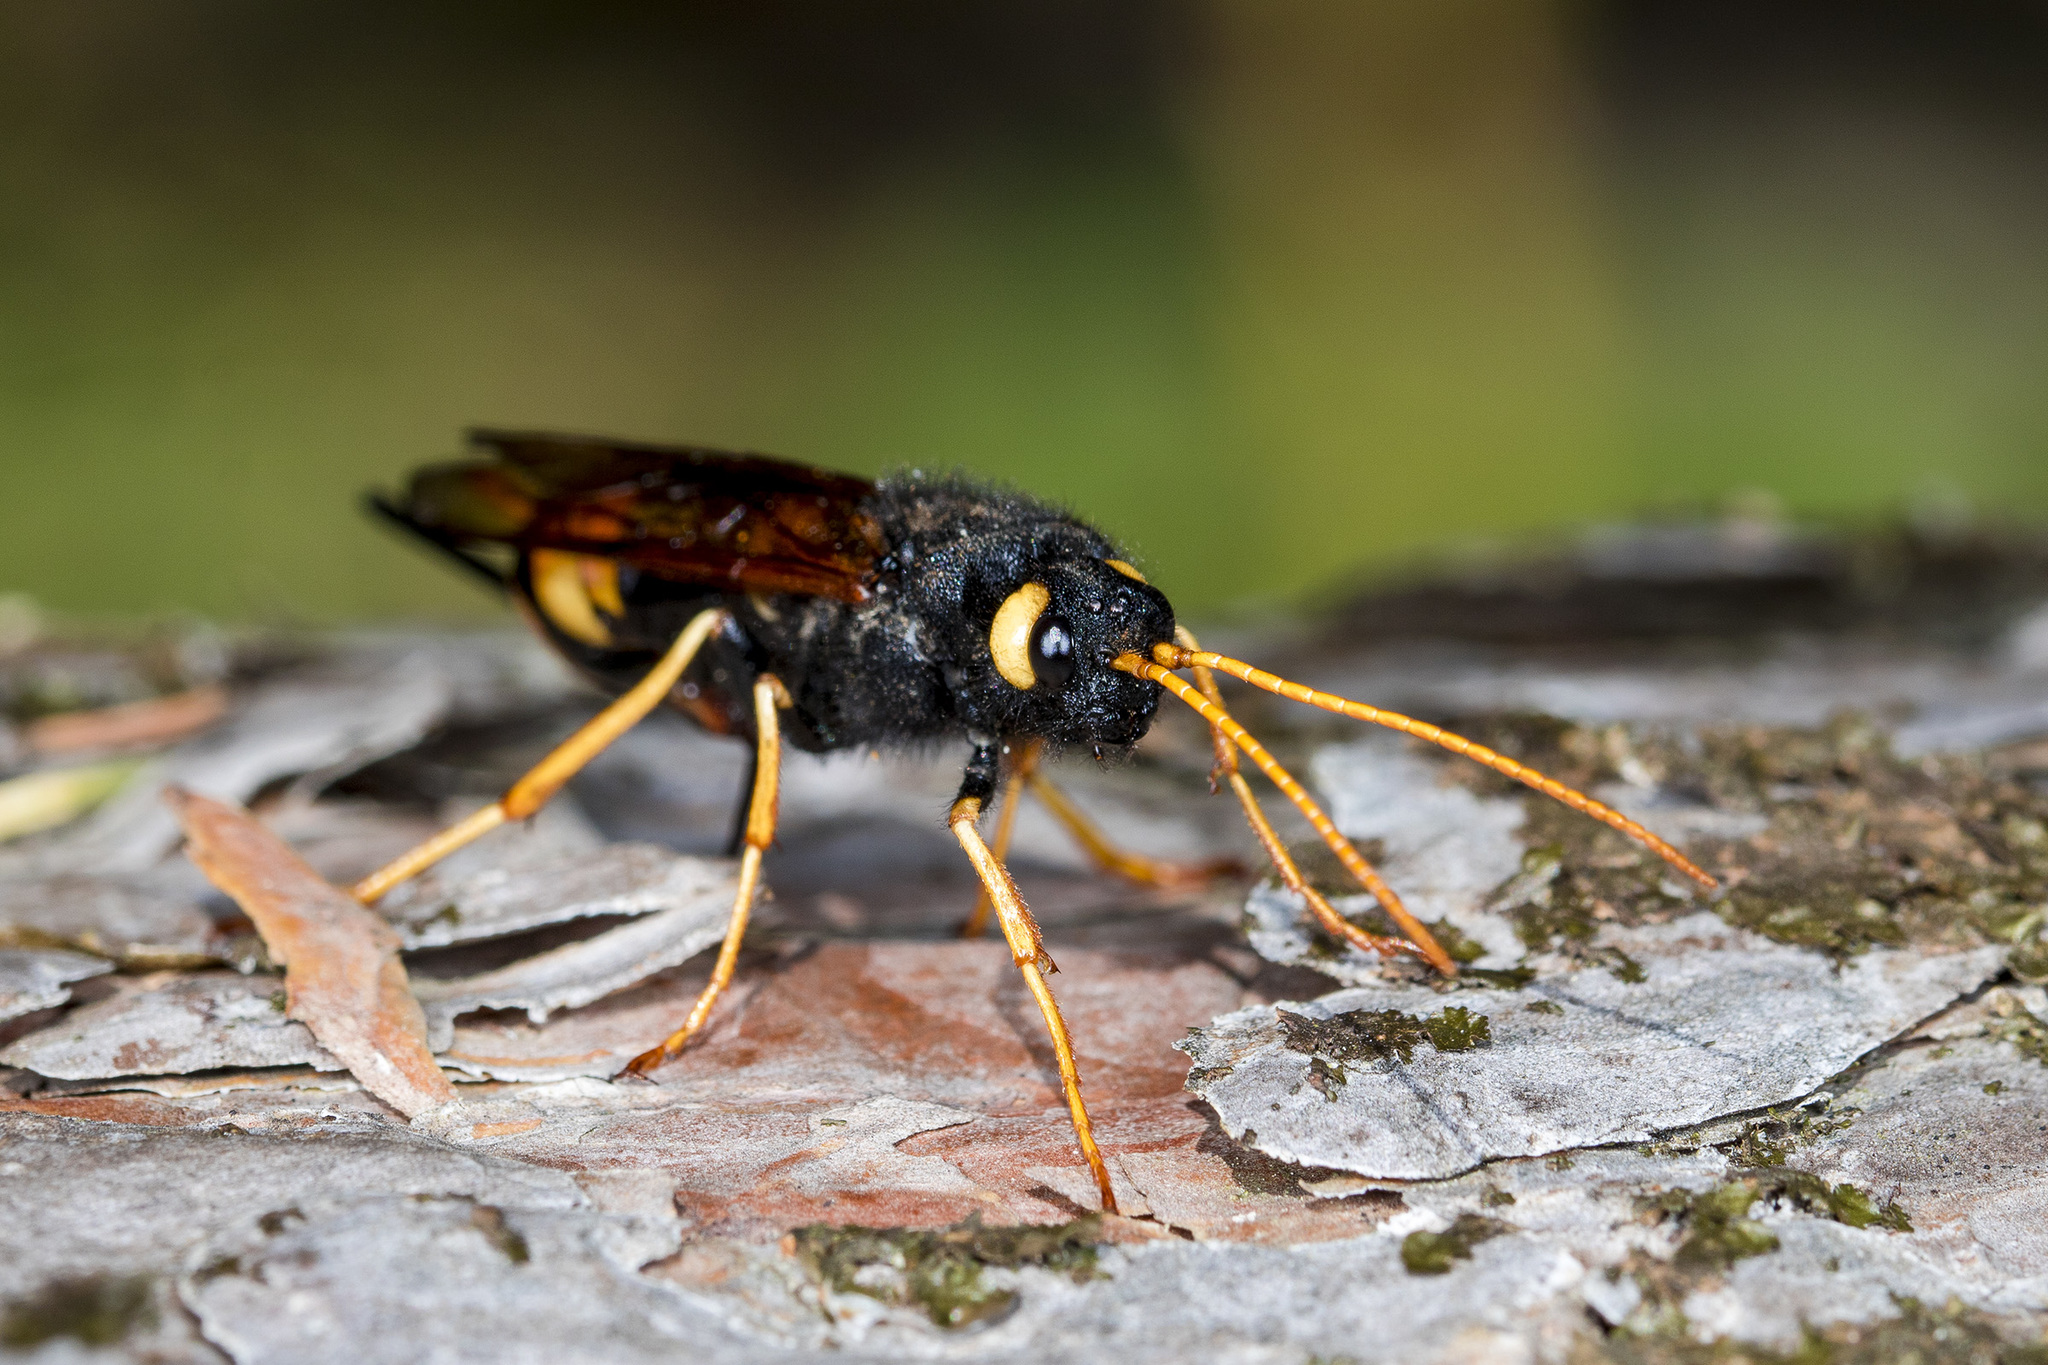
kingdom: Animalia
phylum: Arthropoda
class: Insecta
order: Hymenoptera
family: Siricidae
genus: Urocerus
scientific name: Urocerus gigas
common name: Giant woodwasp
